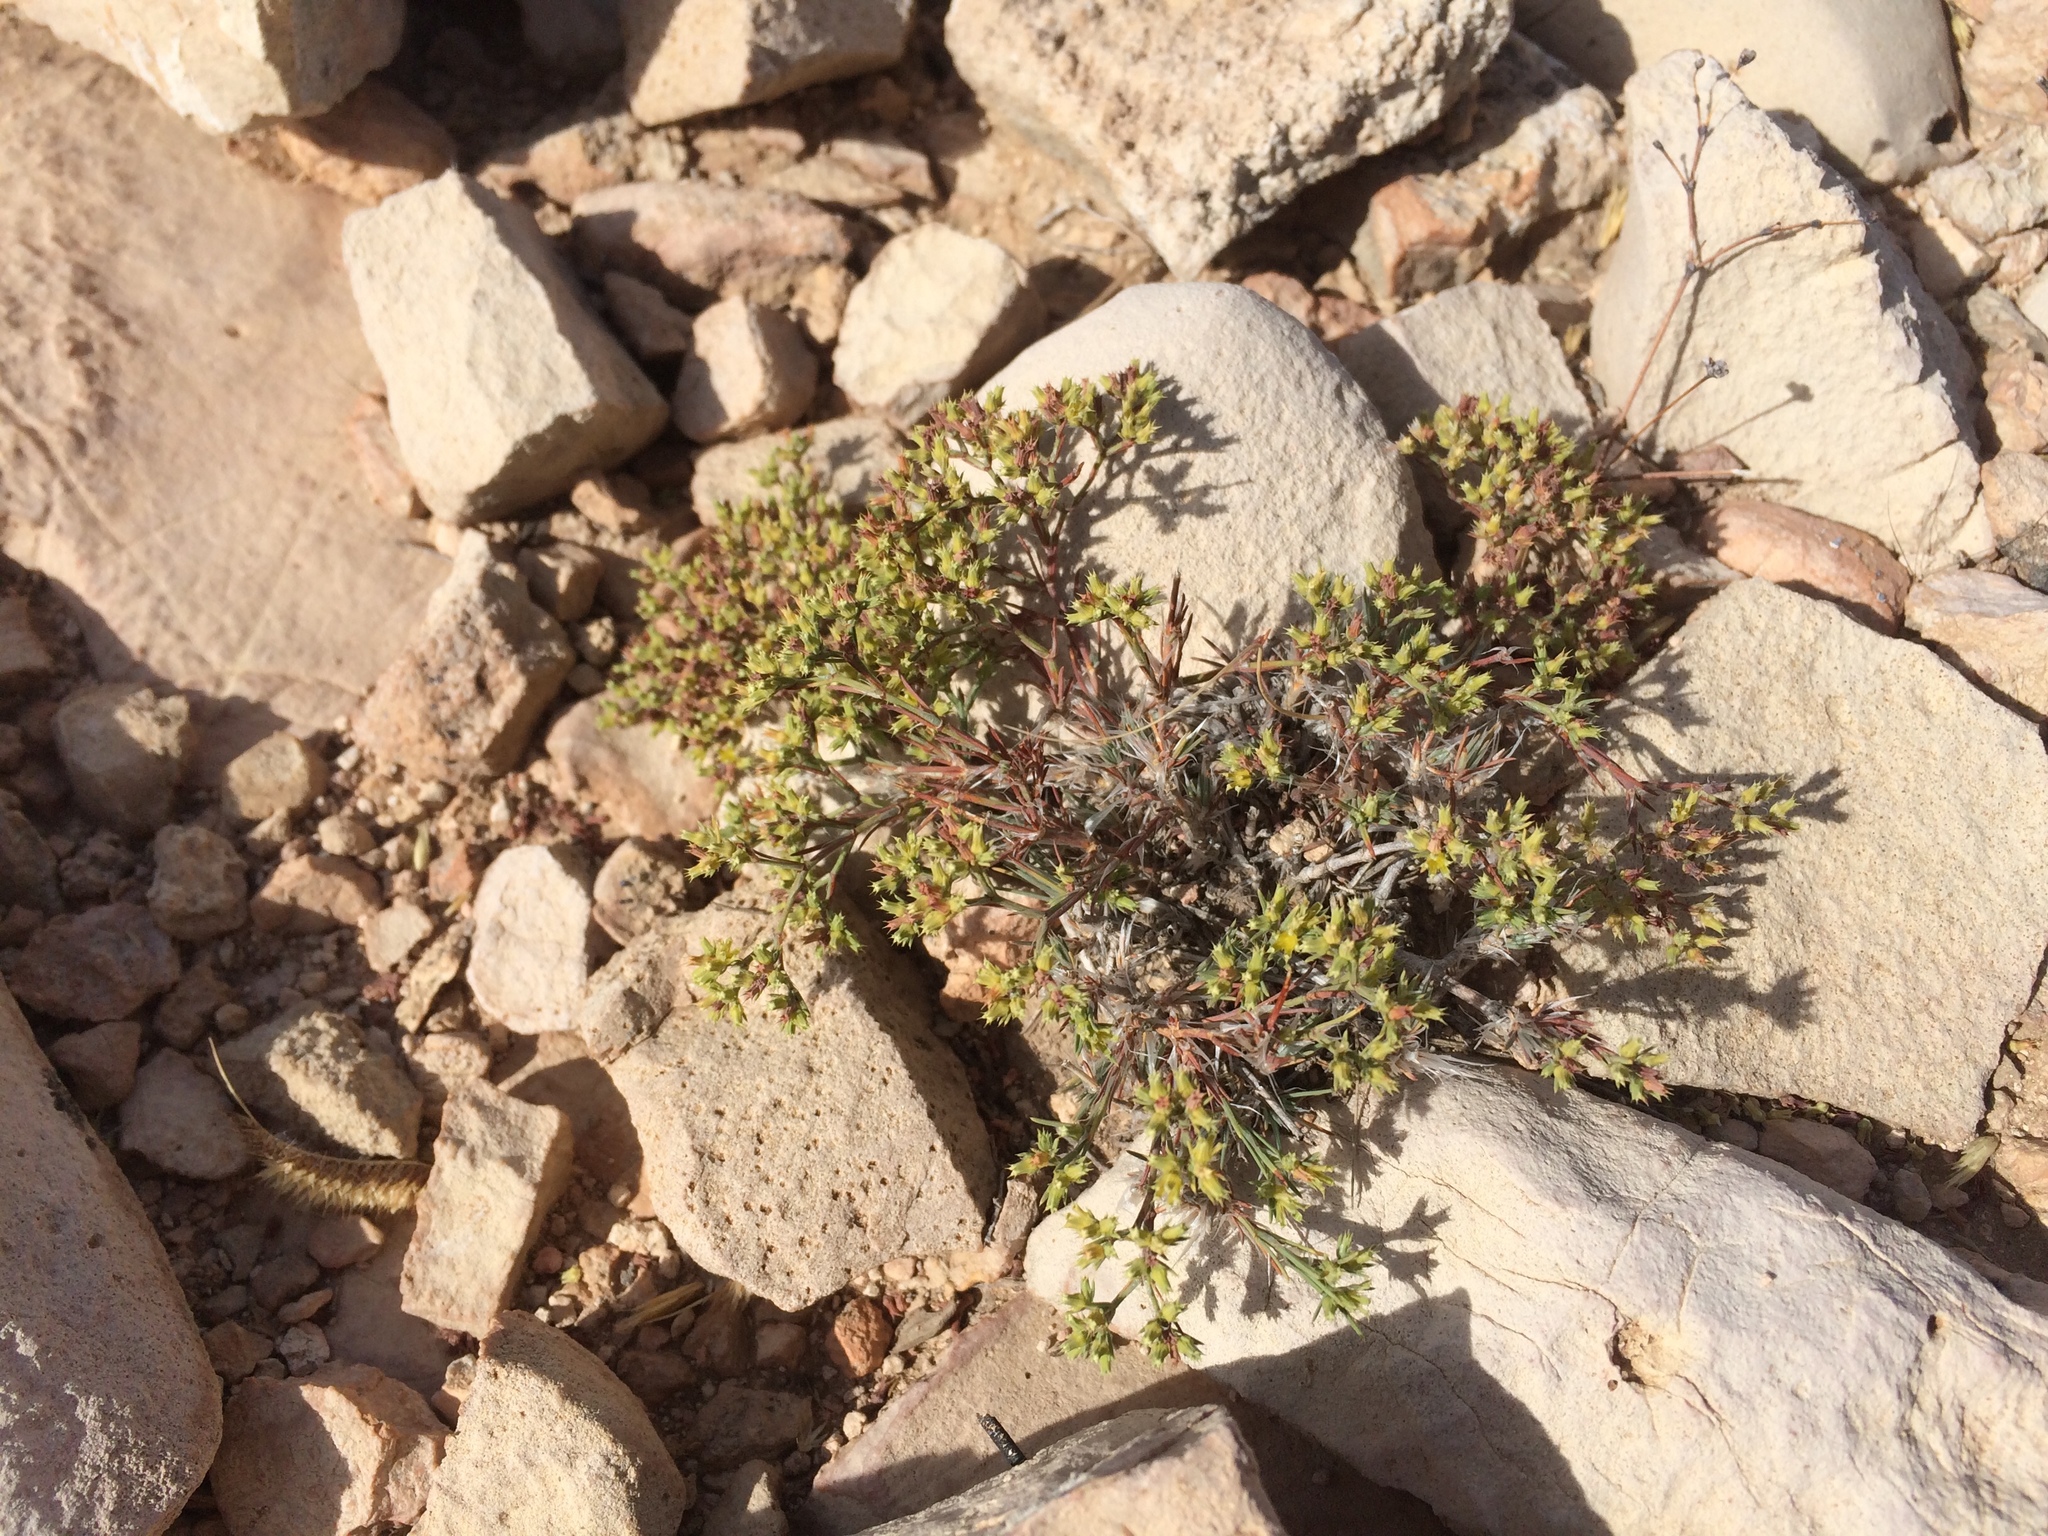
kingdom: Plantae
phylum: Tracheophyta
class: Magnoliopsida
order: Caryophyllales
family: Caryophyllaceae
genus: Paronychia
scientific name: Paronychia jamesii
